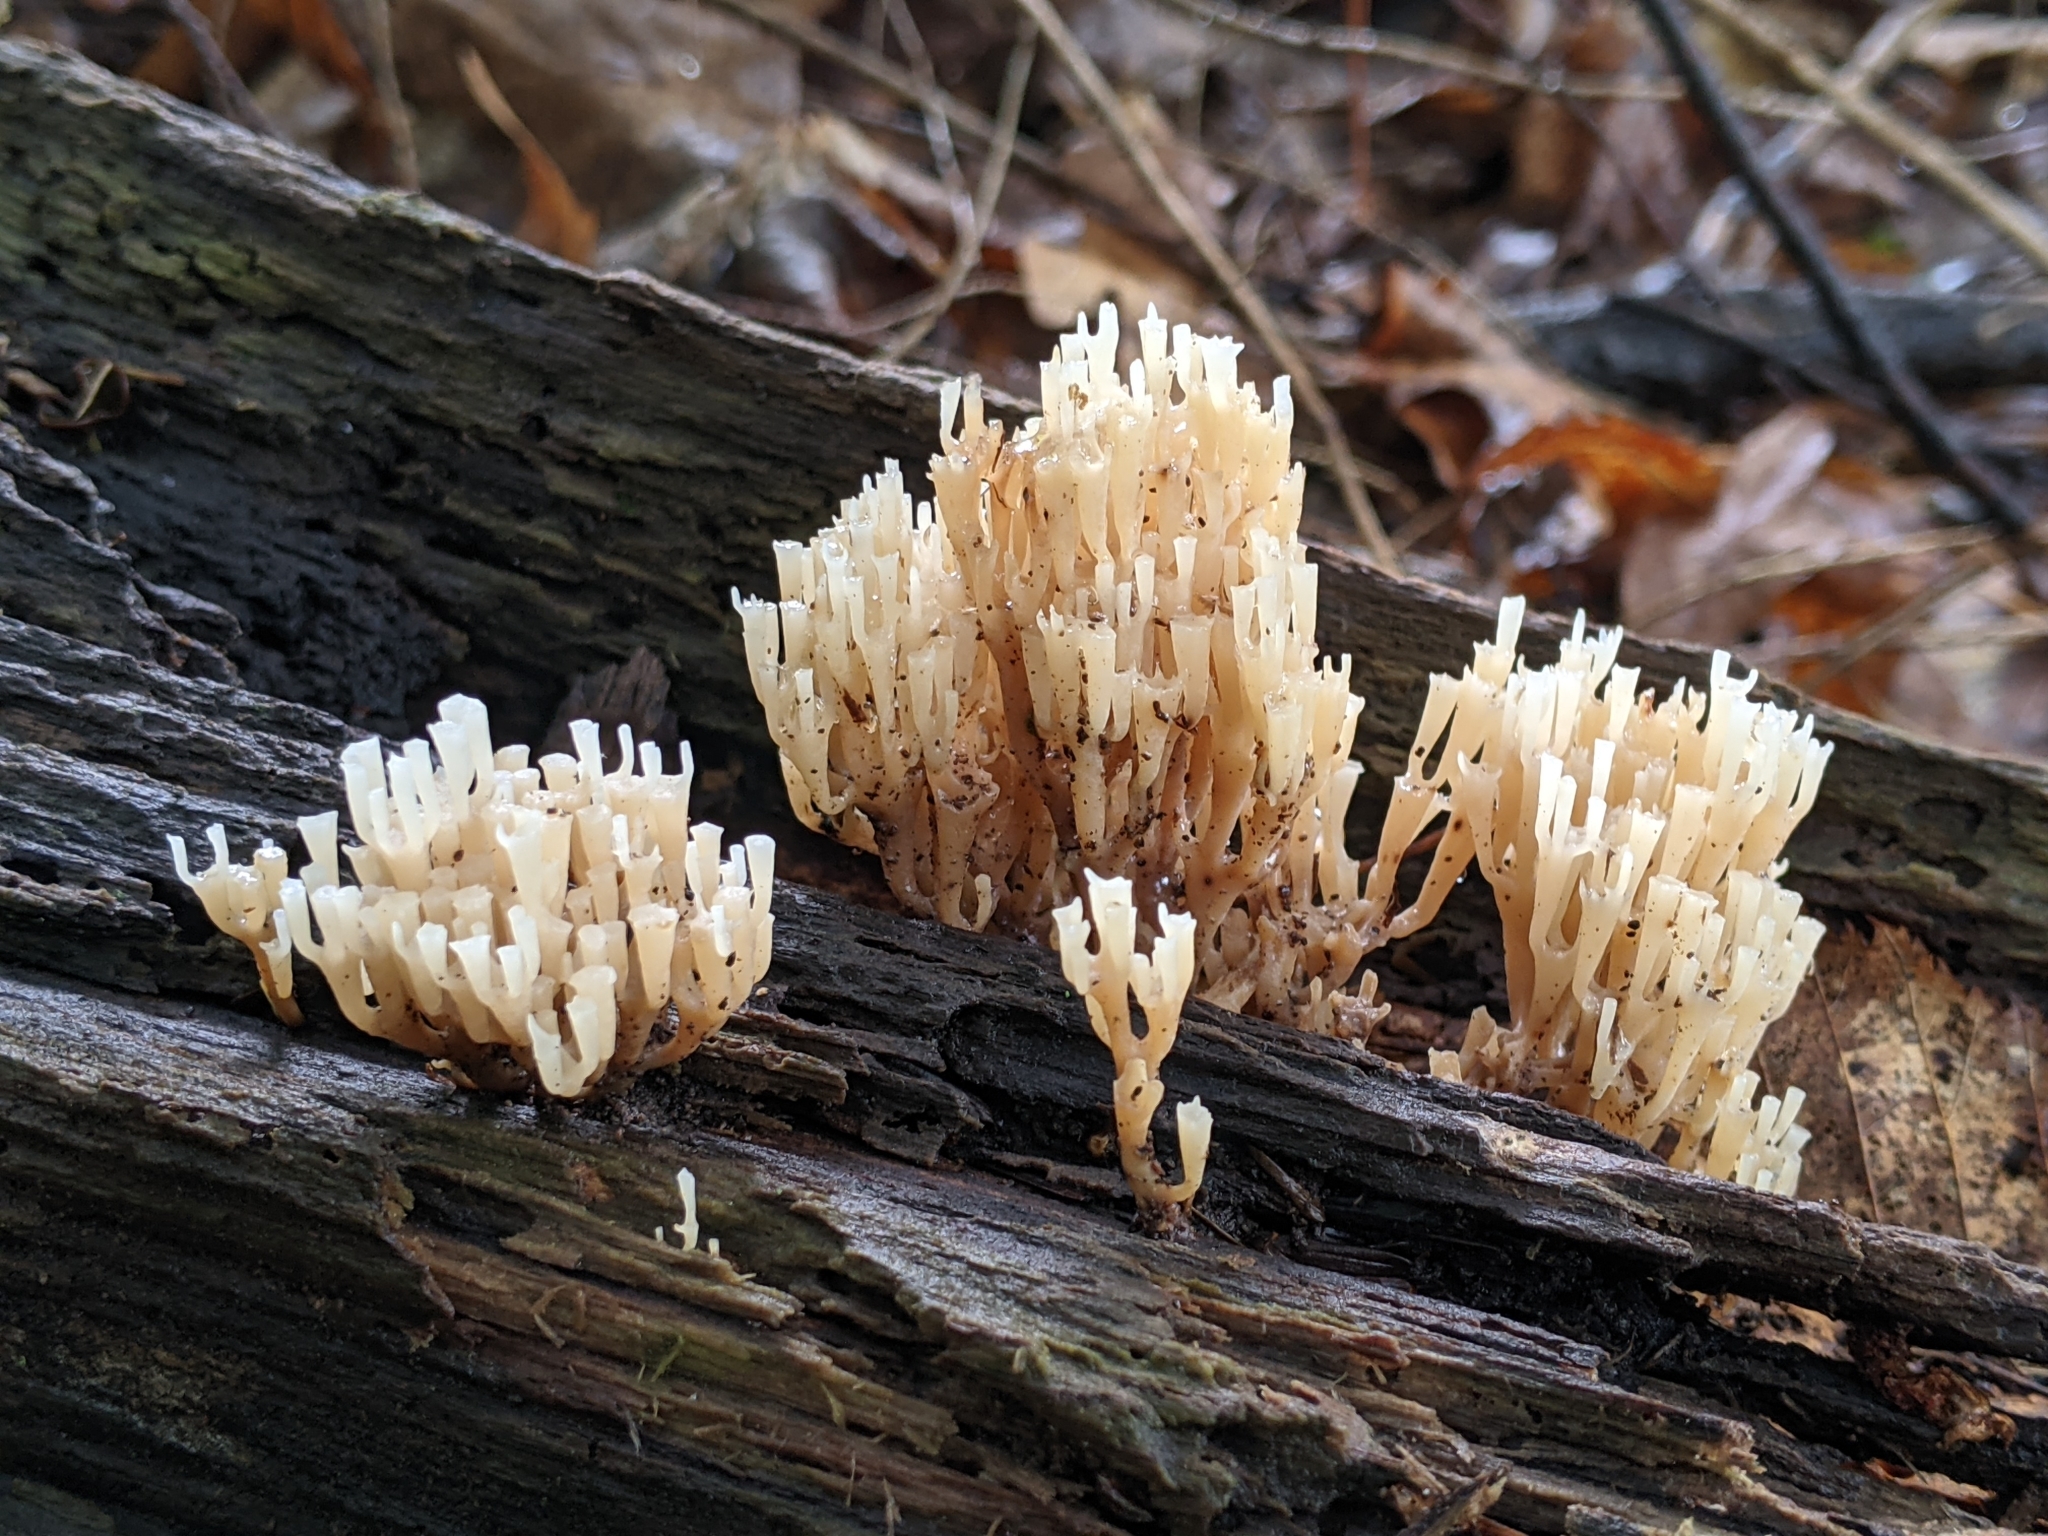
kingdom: Fungi
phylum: Basidiomycota
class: Agaricomycetes
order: Russulales
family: Auriscalpiaceae
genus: Artomyces
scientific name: Artomyces pyxidatus
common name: Crown-tipped coral fungus
